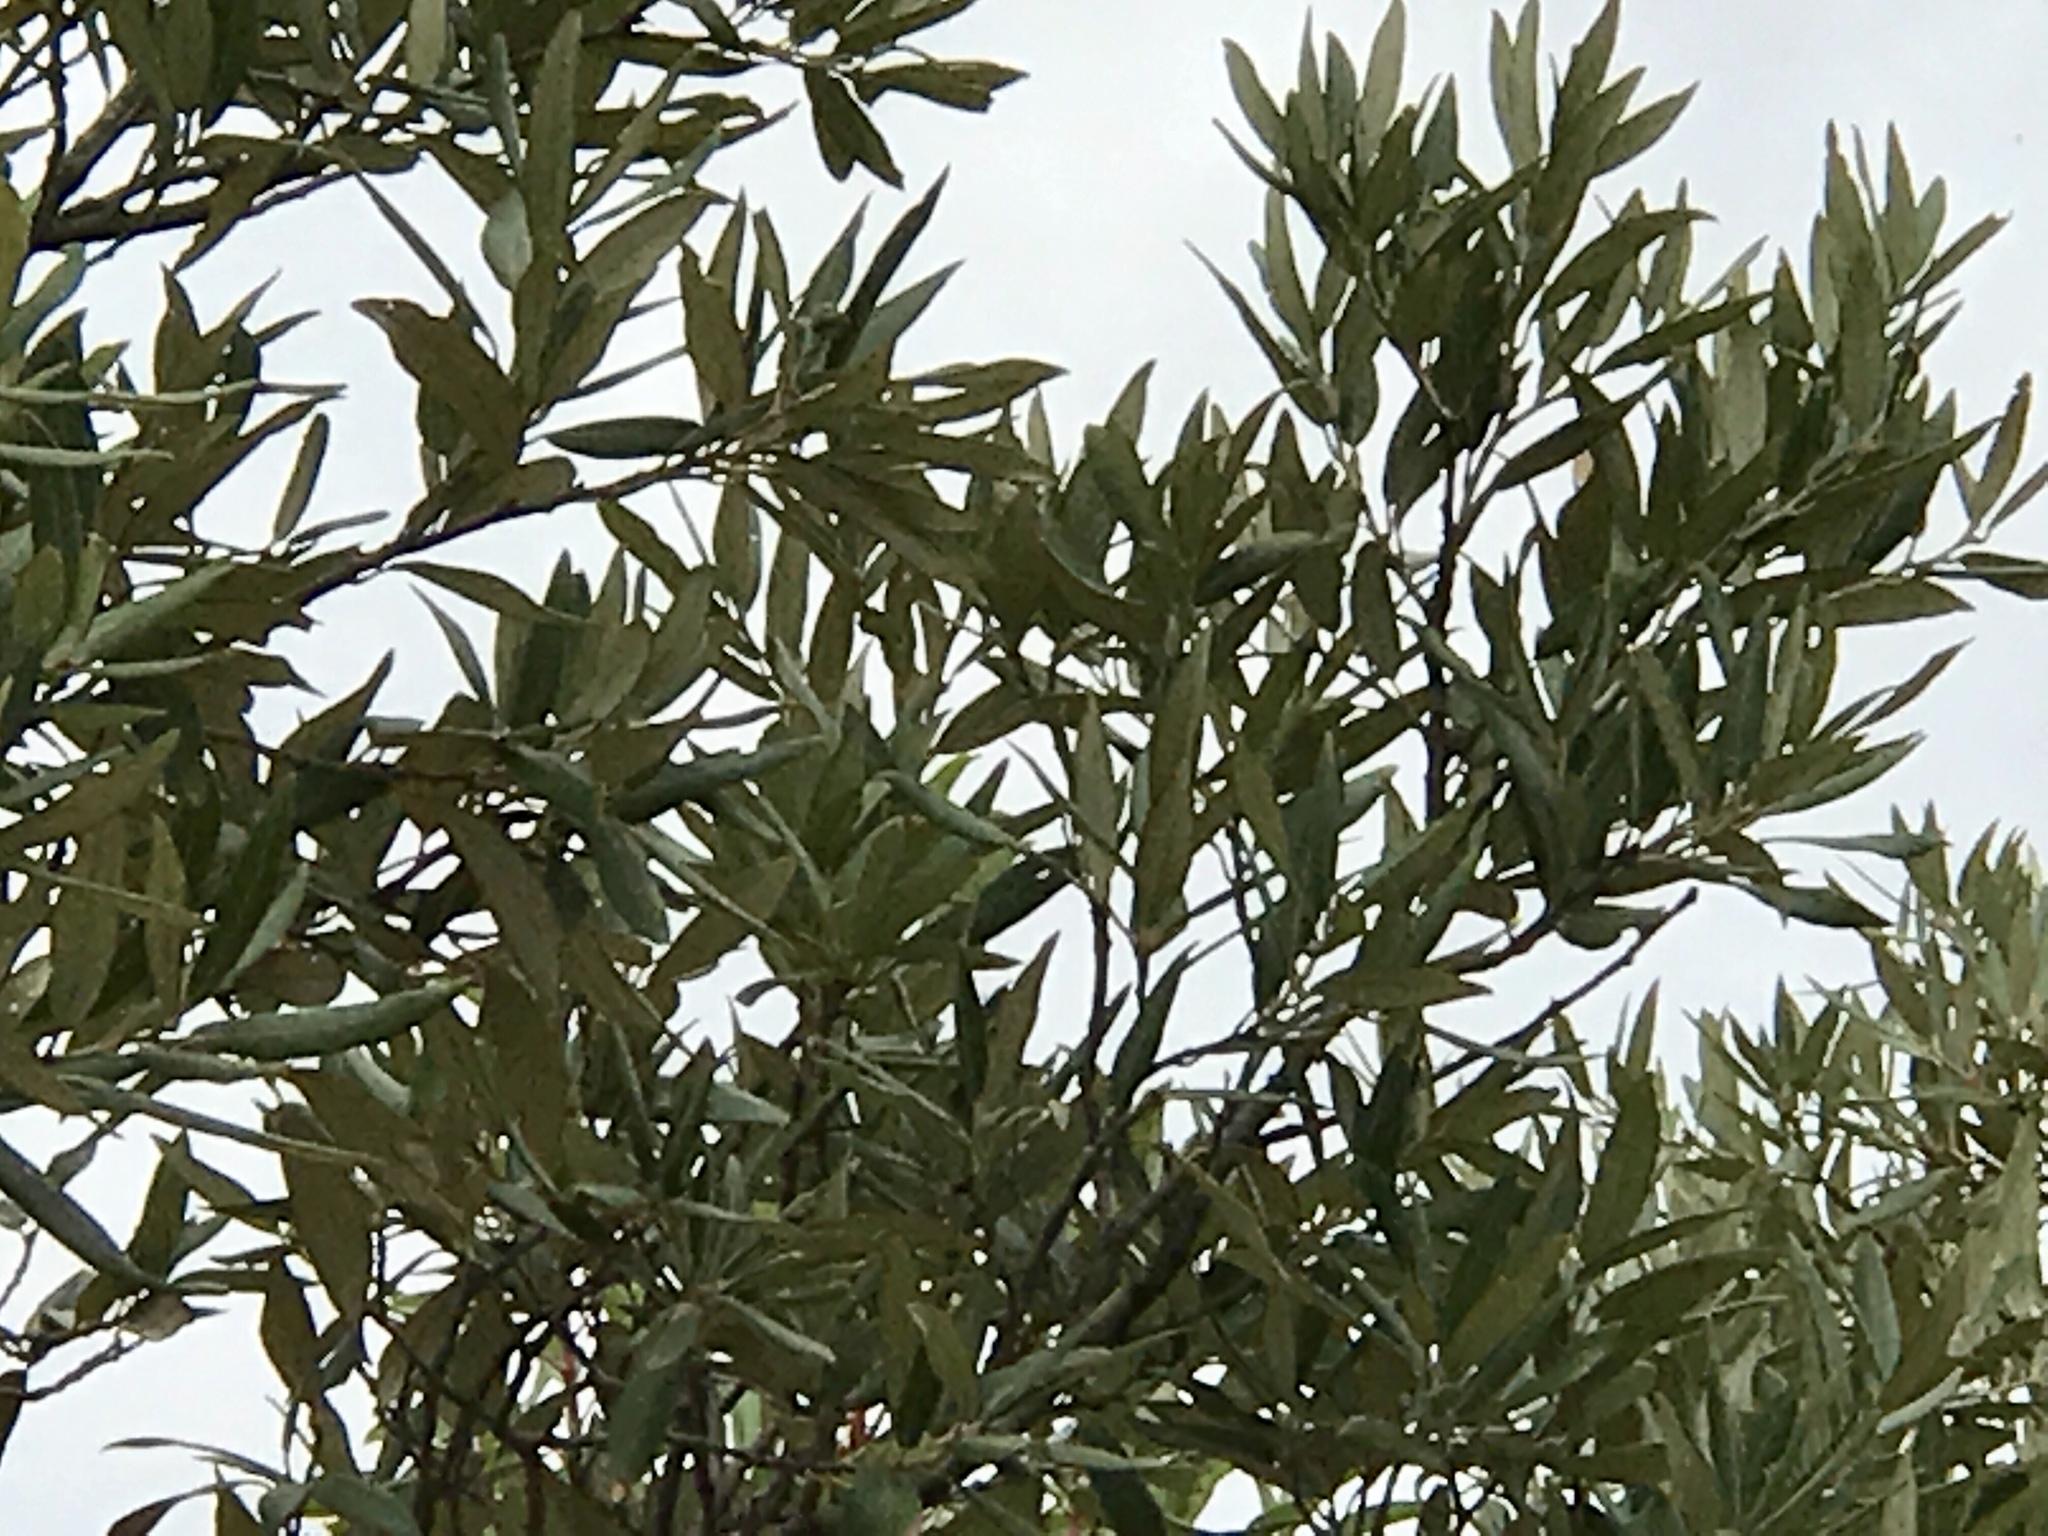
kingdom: Plantae
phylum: Tracheophyta
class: Magnoliopsida
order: Fagales
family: Fagaceae
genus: Quercus
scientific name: Quercus hypoleucoides
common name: Silverleaf oak
